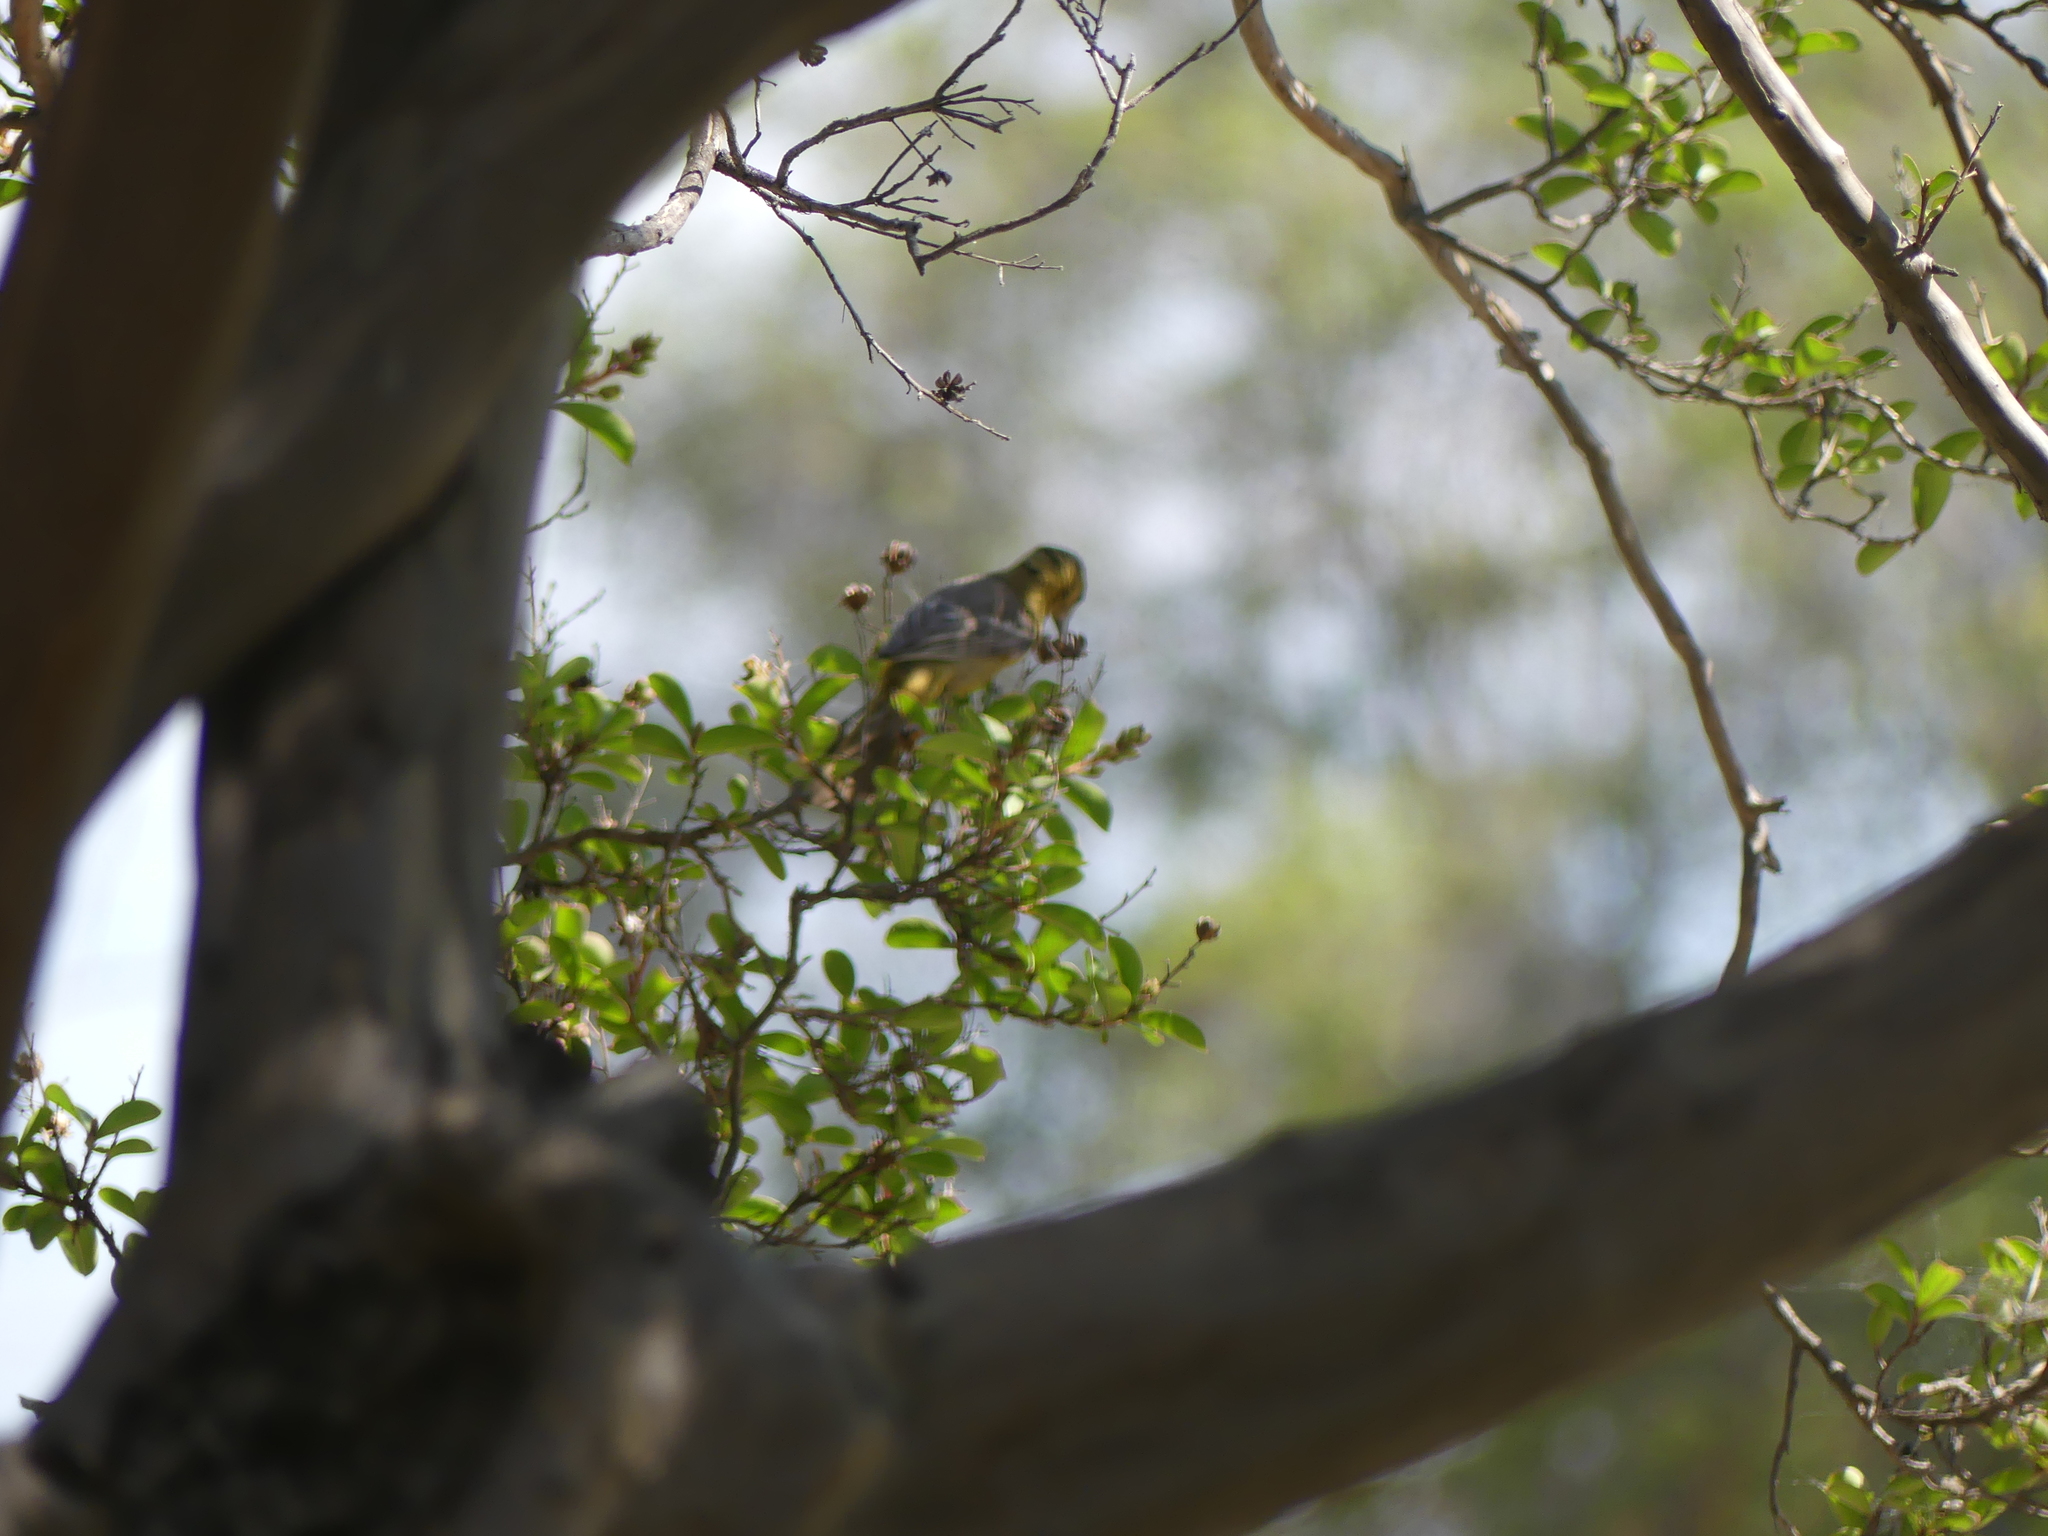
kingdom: Animalia
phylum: Chordata
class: Aves
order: Passeriformes
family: Icteridae
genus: Icterus
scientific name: Icterus cucullatus
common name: Hooded oriole
